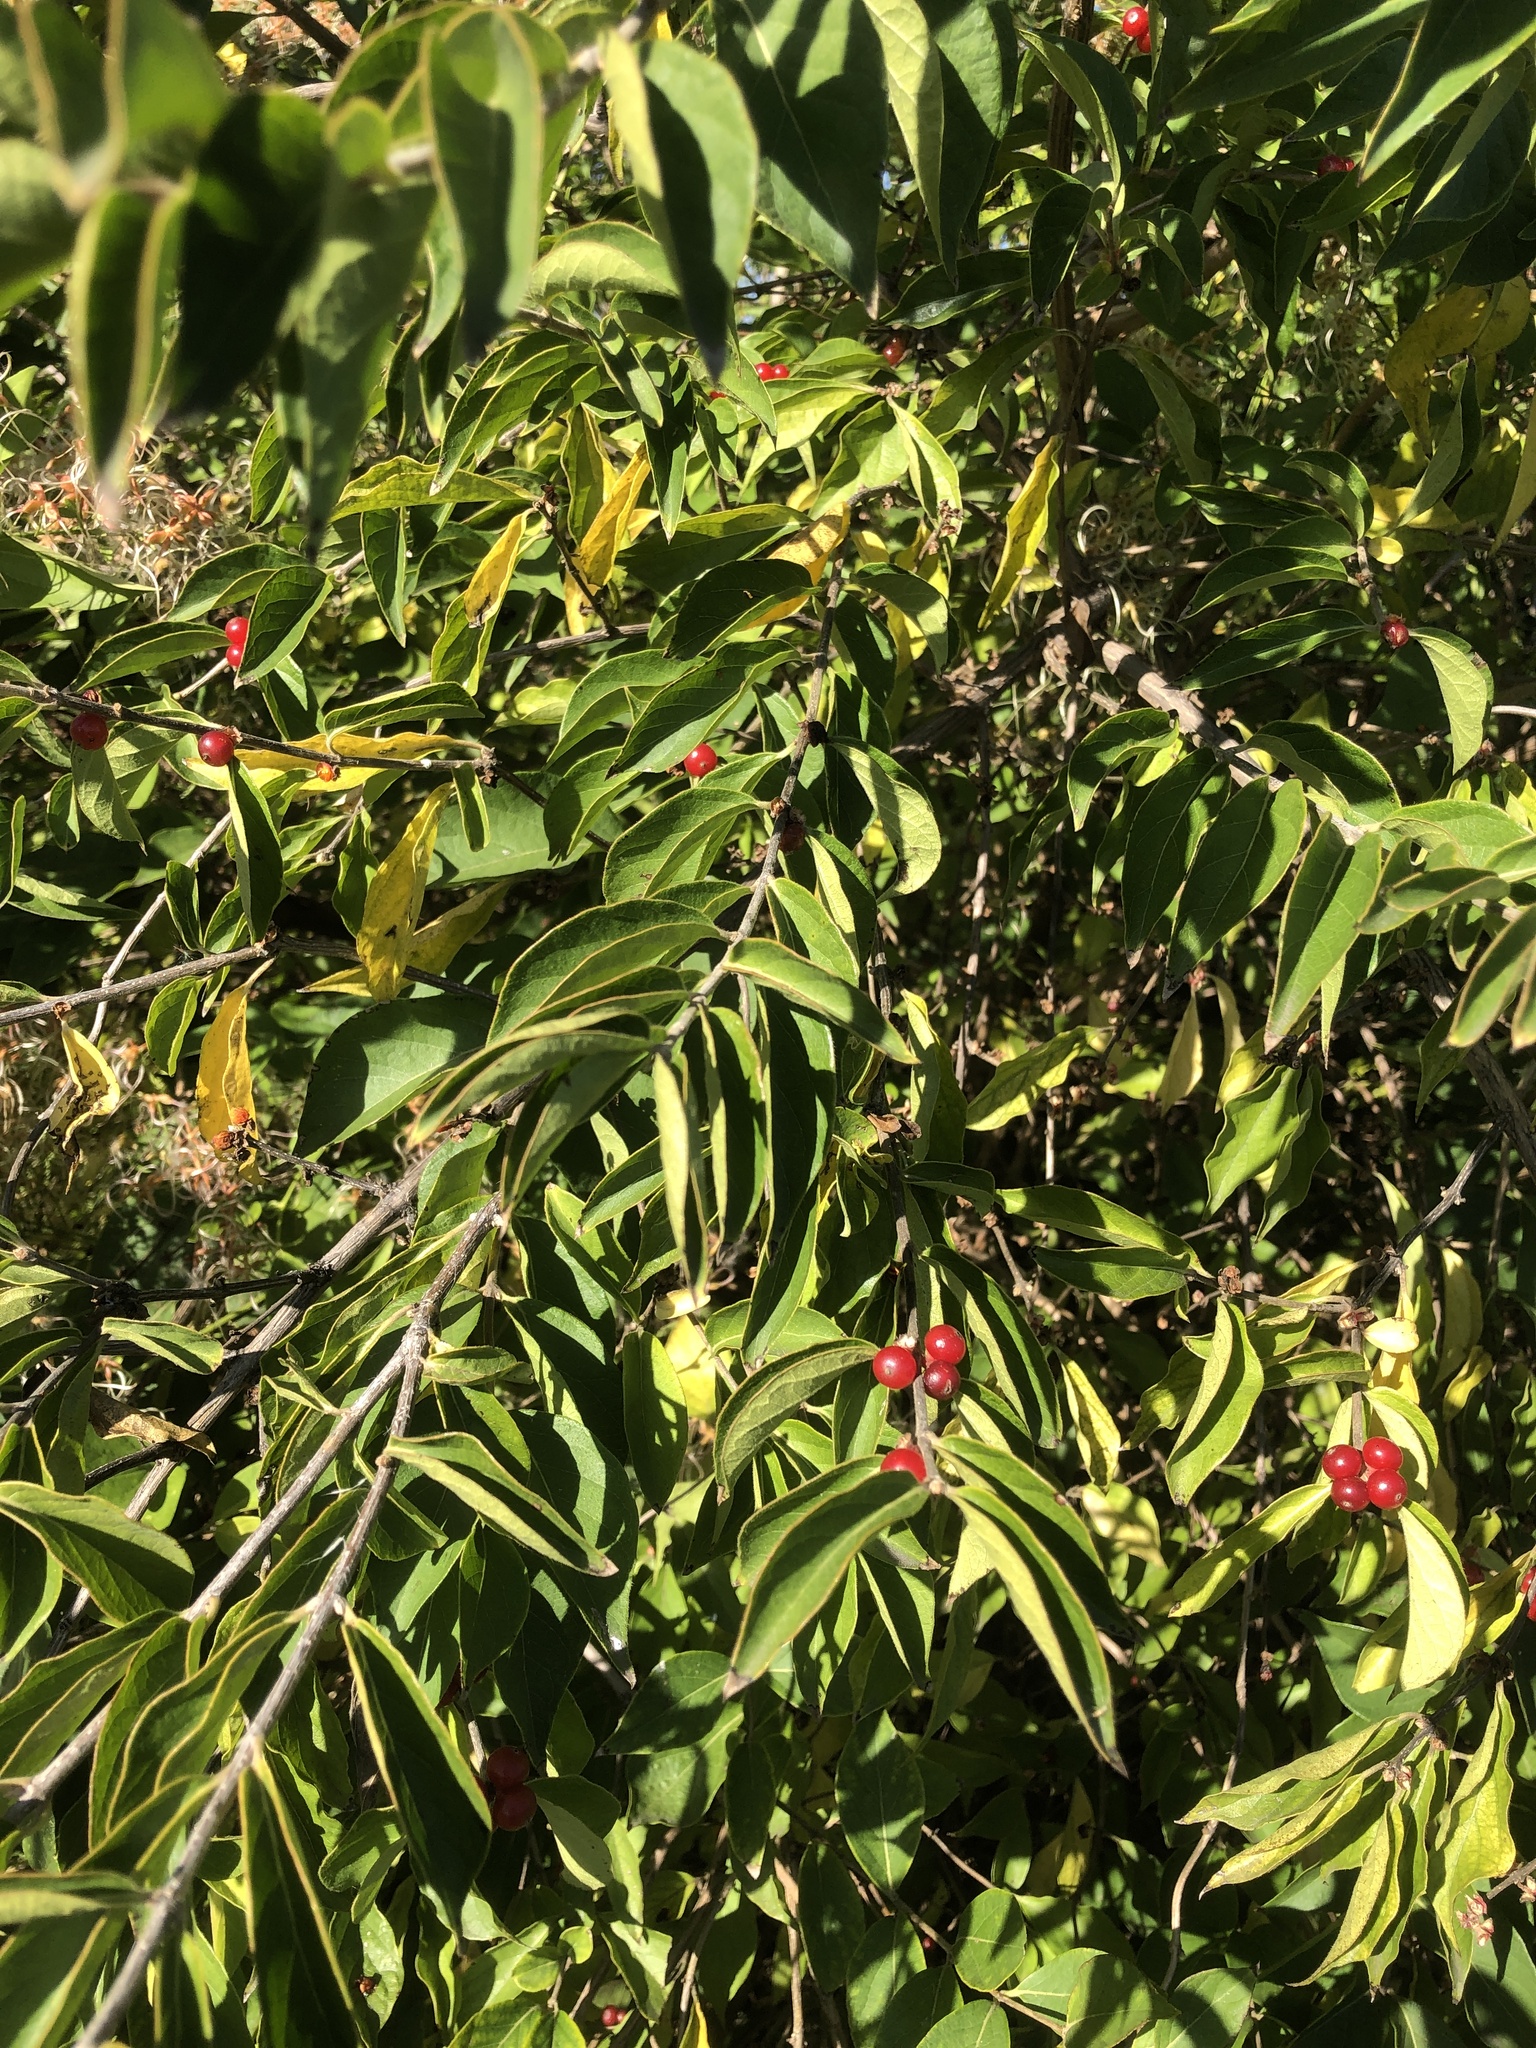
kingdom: Plantae
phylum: Tracheophyta
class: Magnoliopsida
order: Dipsacales
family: Caprifoliaceae
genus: Lonicera
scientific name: Lonicera maackii
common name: Amur honeysuckle
